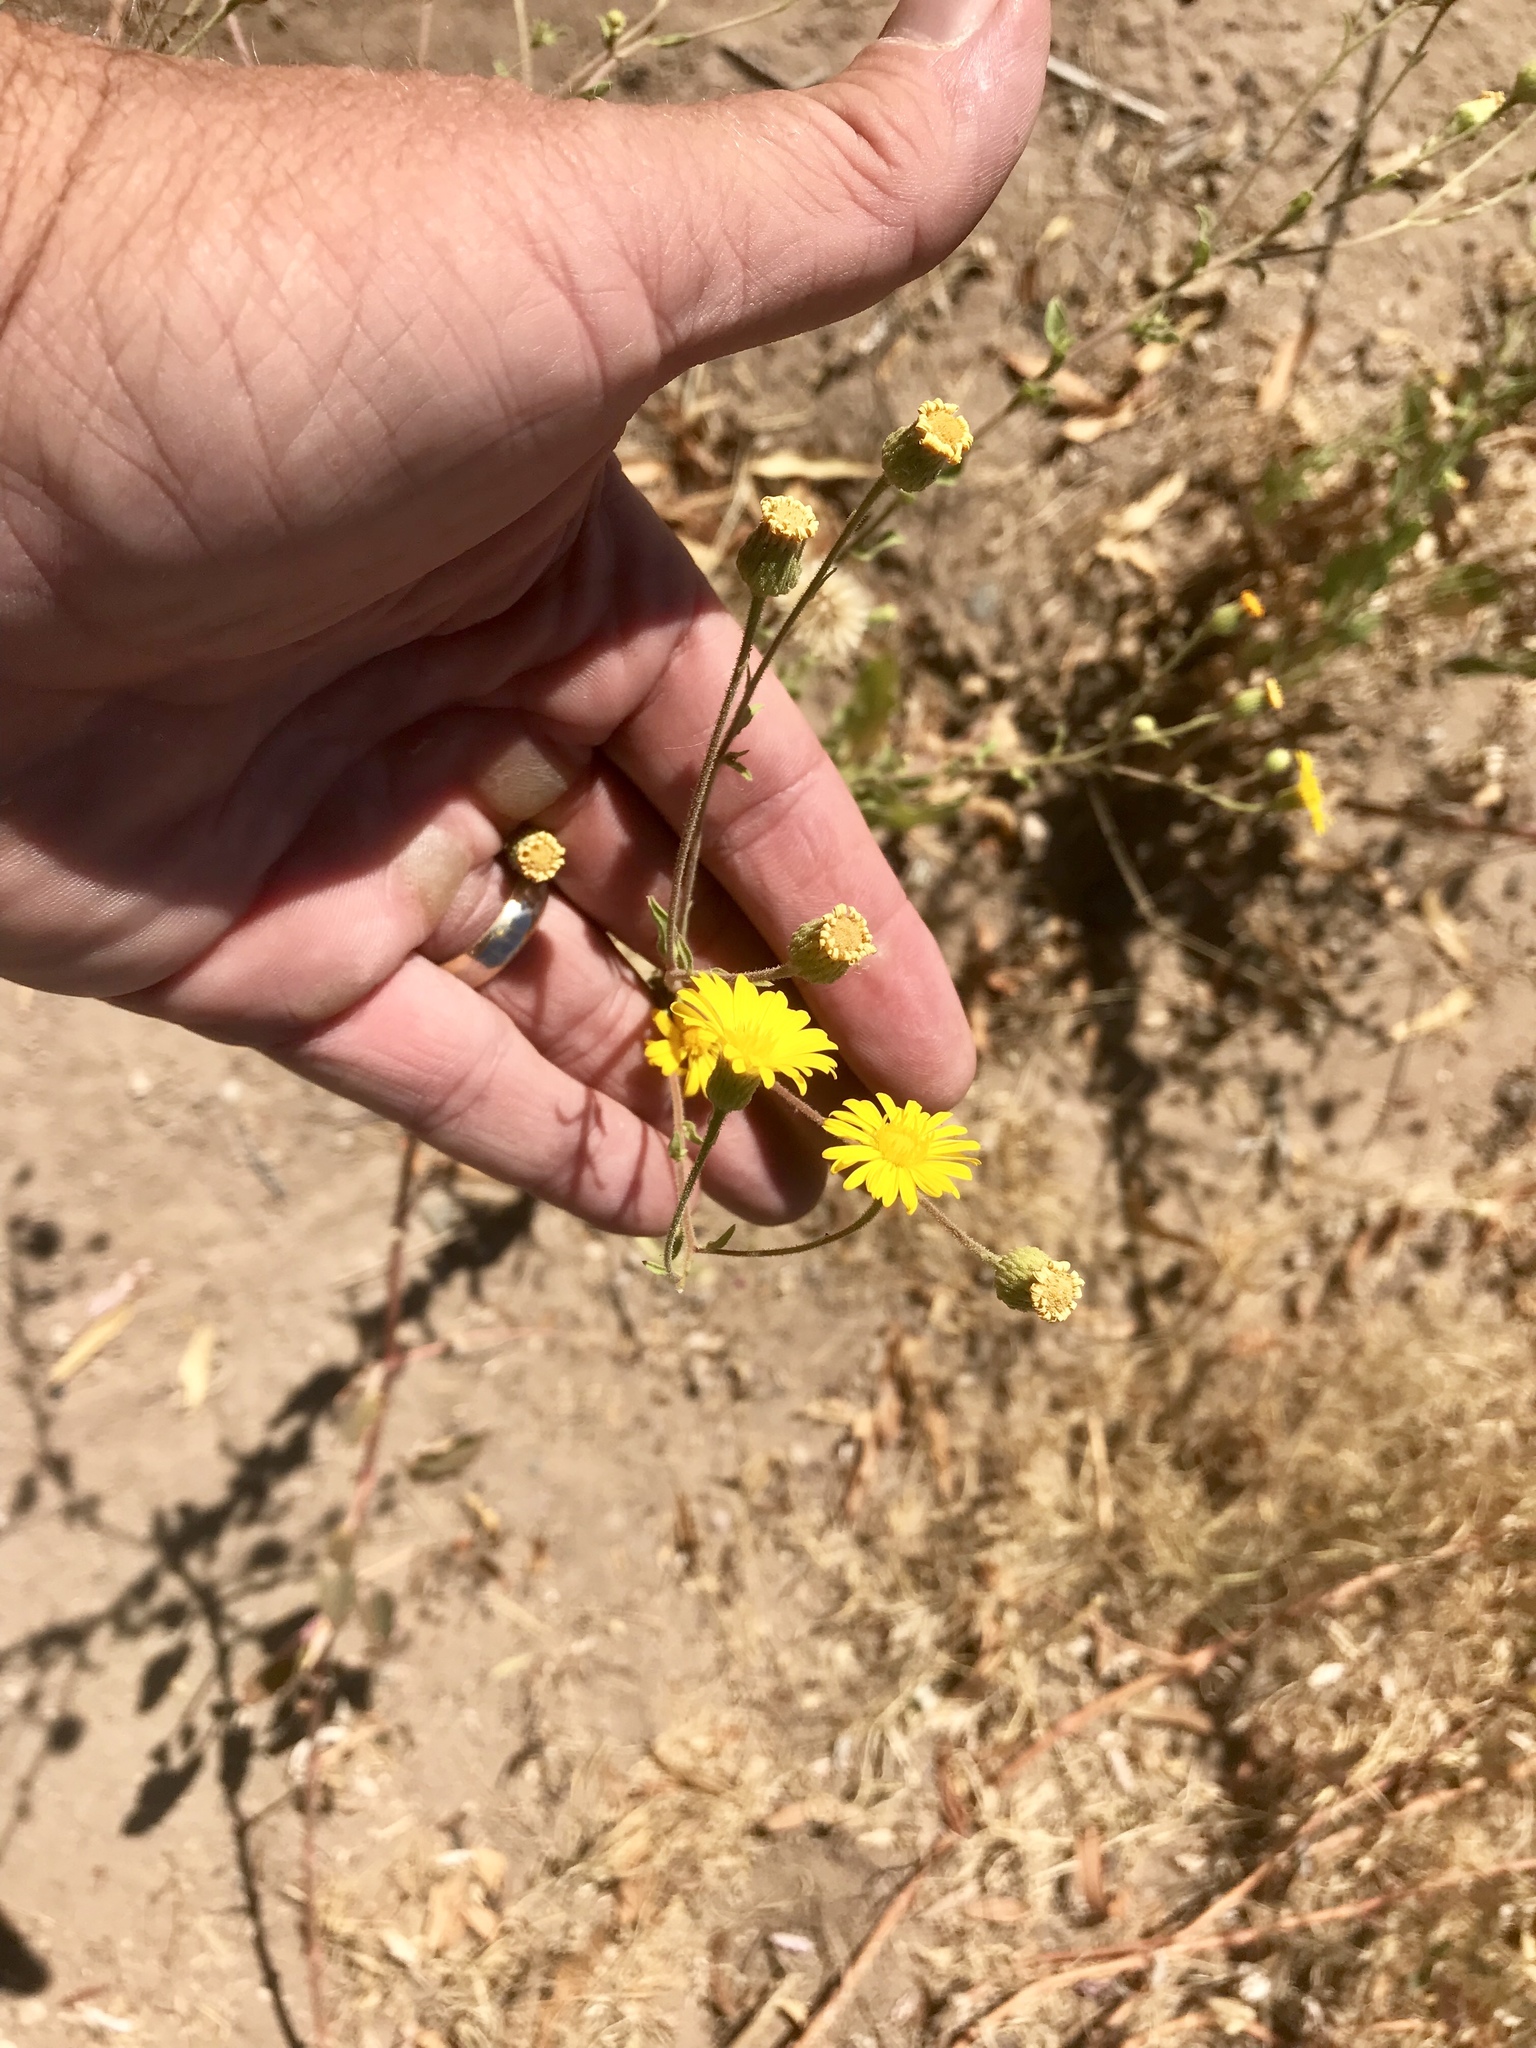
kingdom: Plantae
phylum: Tracheophyta
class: Magnoliopsida
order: Asterales
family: Asteraceae
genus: Heterotheca
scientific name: Heterotheca subaxillaris
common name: Camphorweed
